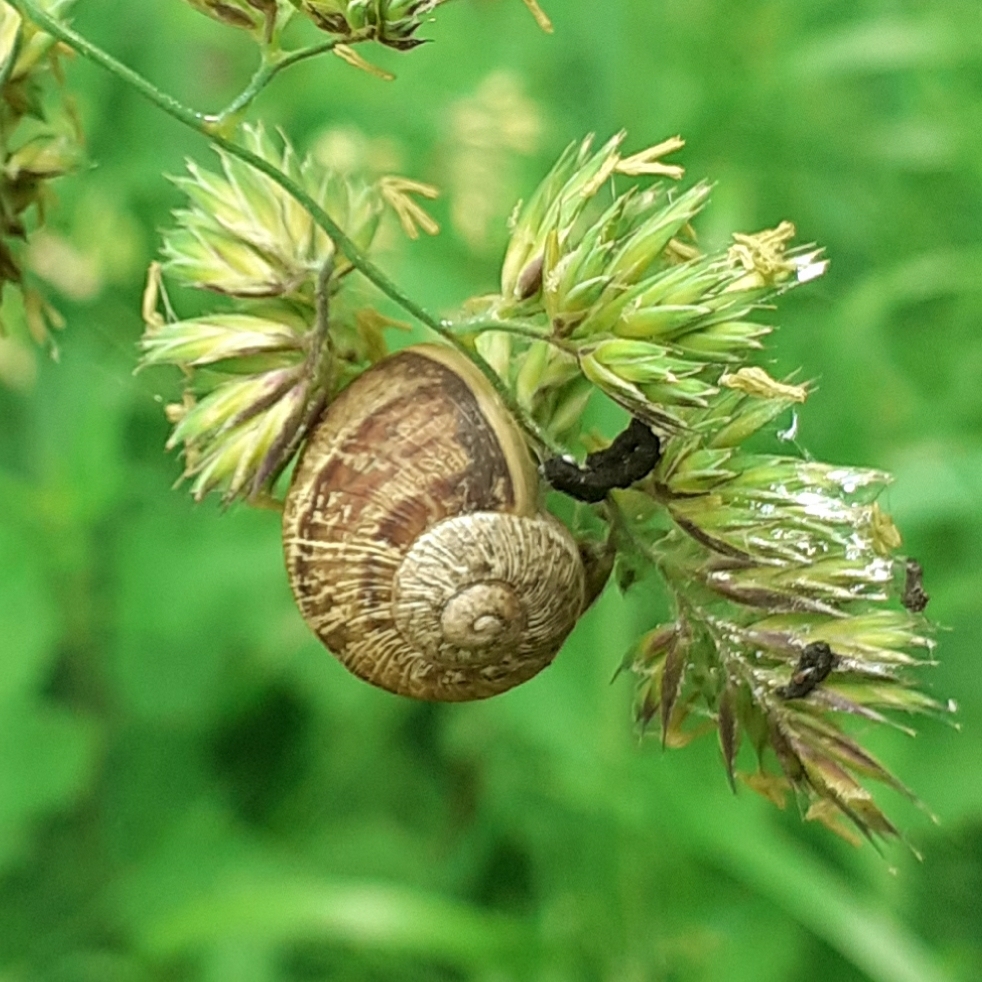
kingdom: Animalia
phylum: Mollusca
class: Gastropoda
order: Stylommatophora
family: Helicidae
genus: Cornu
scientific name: Cornu aspersum
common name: Brown garden snail
